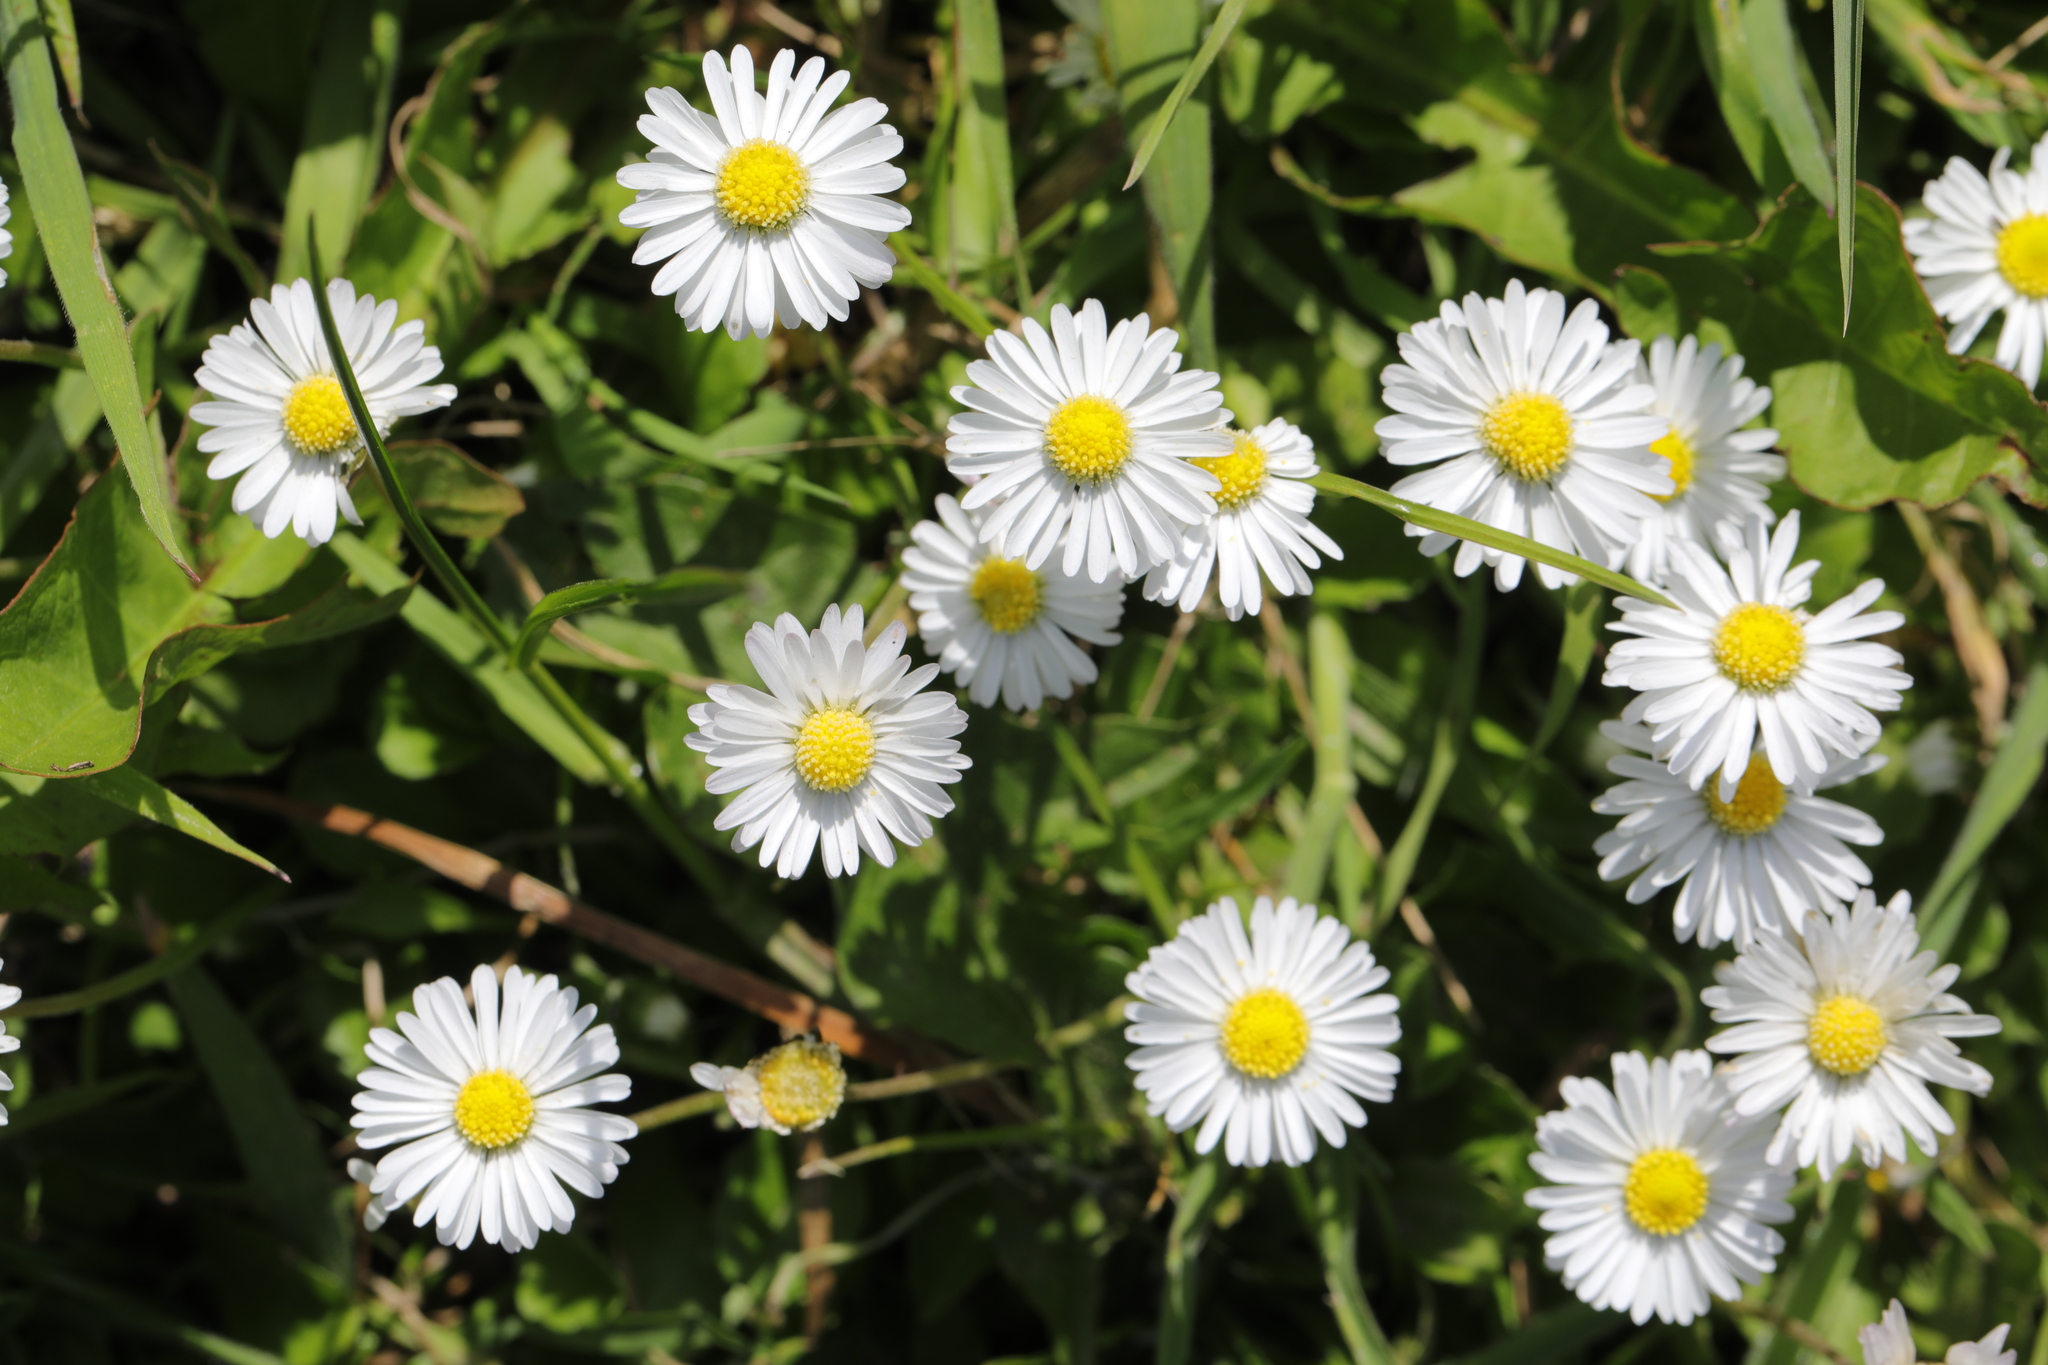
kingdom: Plantae
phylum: Tracheophyta
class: Magnoliopsida
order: Asterales
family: Asteraceae
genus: Bellis
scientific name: Bellis perennis
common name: Lawndaisy
